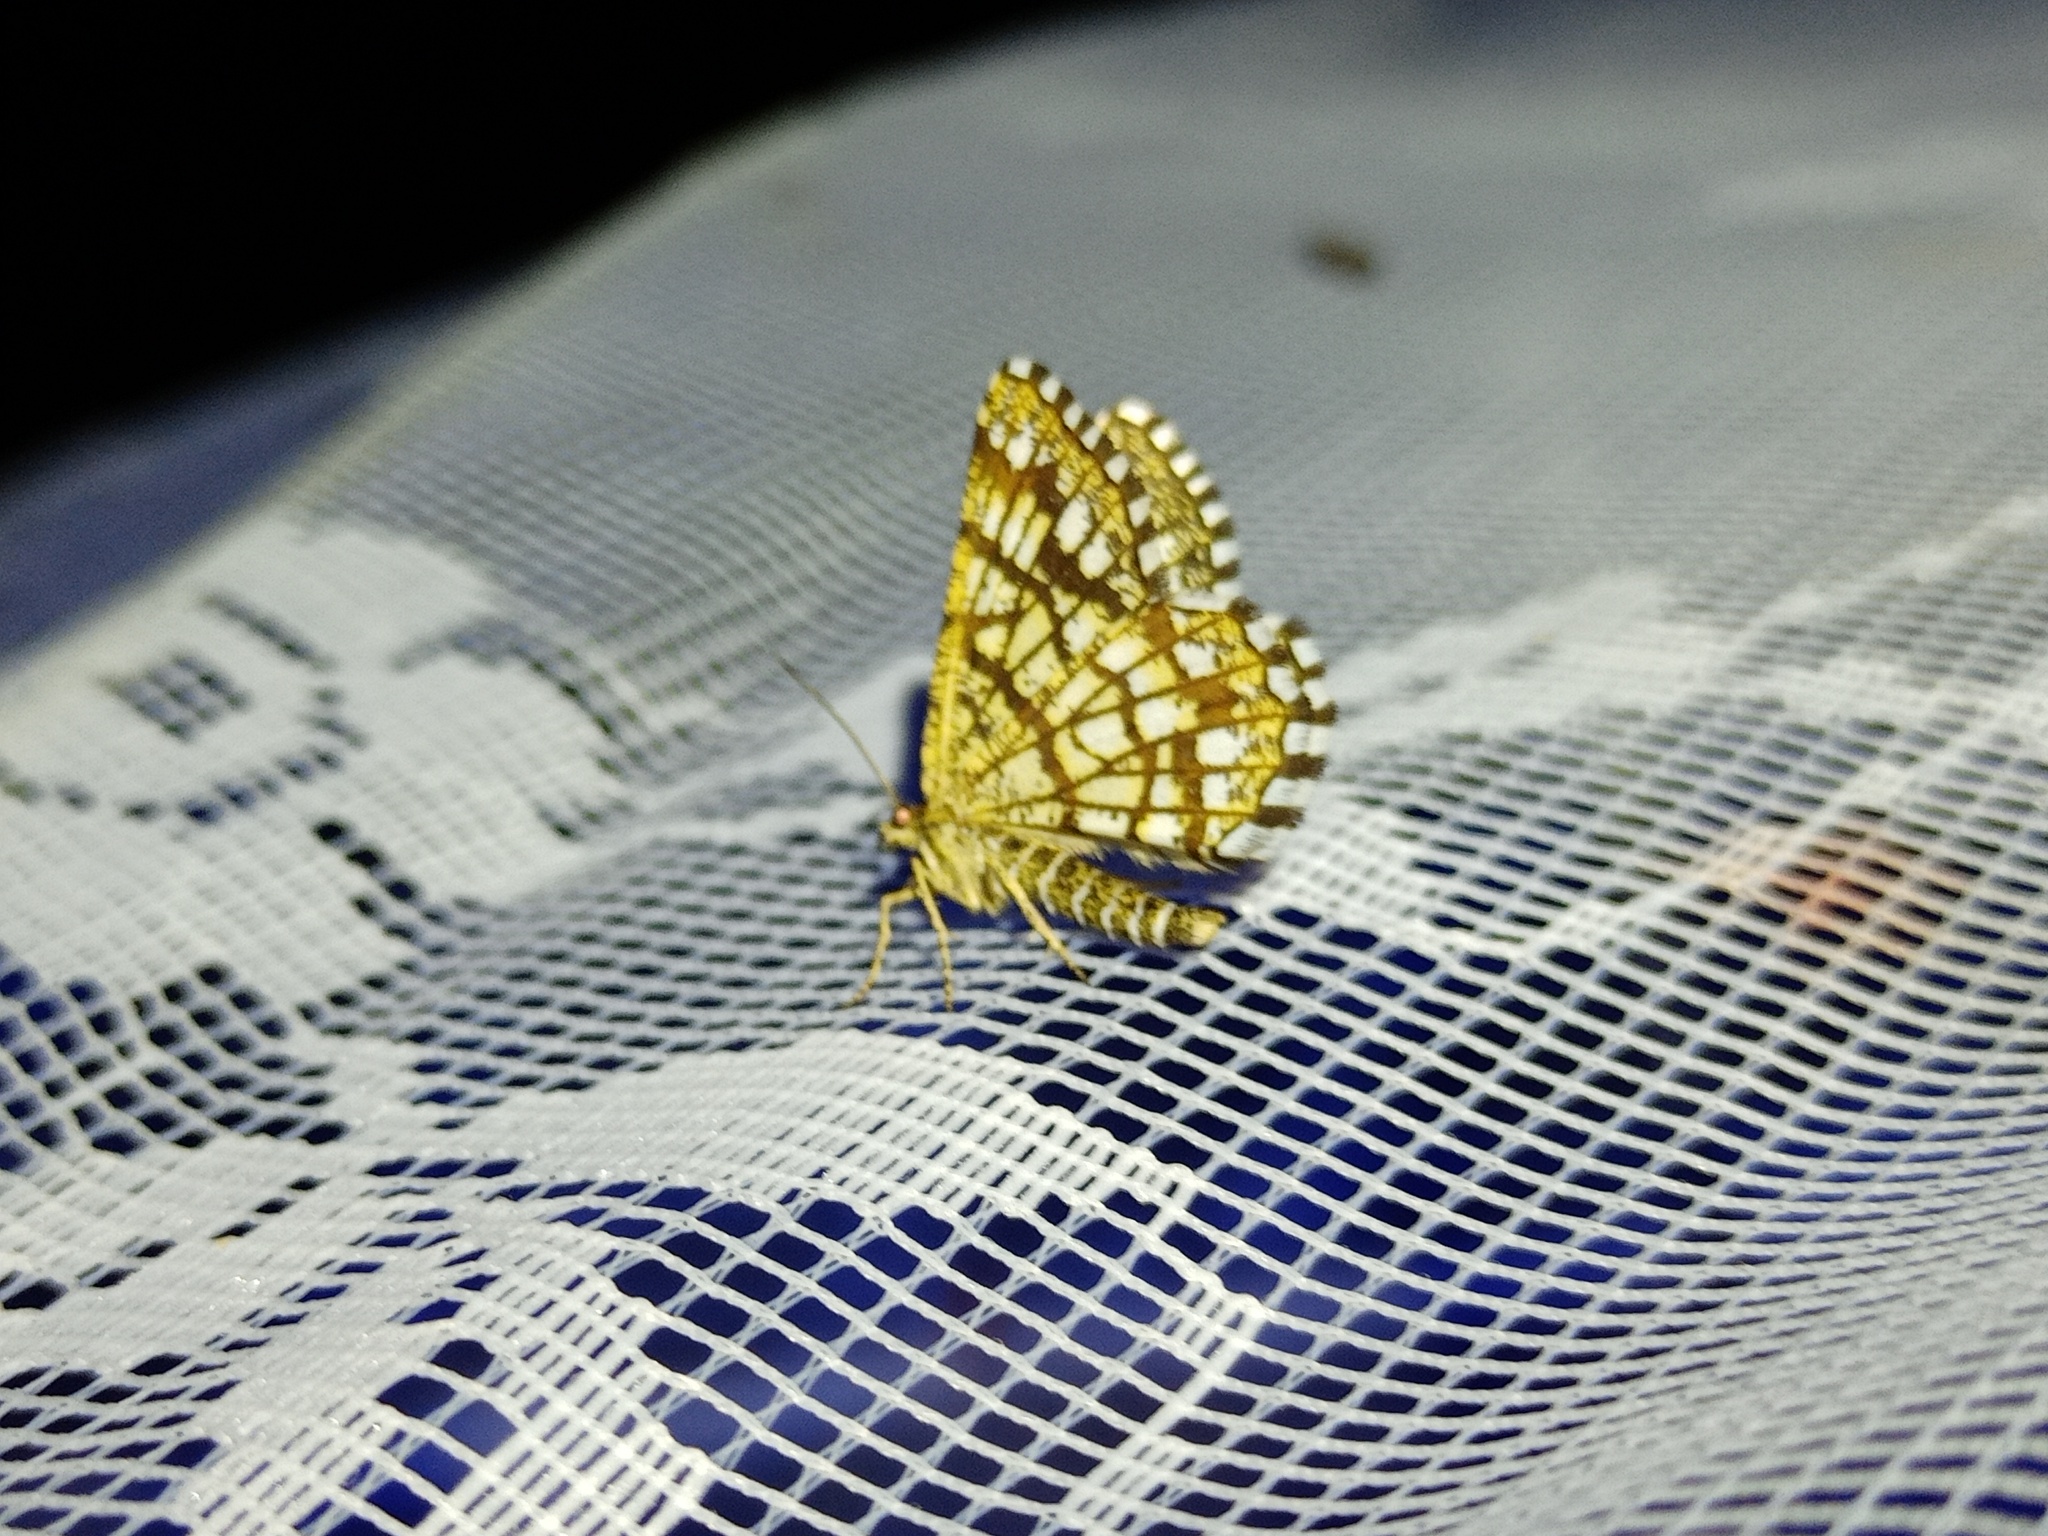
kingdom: Animalia
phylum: Arthropoda
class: Insecta
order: Lepidoptera
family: Geometridae
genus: Chiasmia
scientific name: Chiasmia clathrata
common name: Latticed heath
